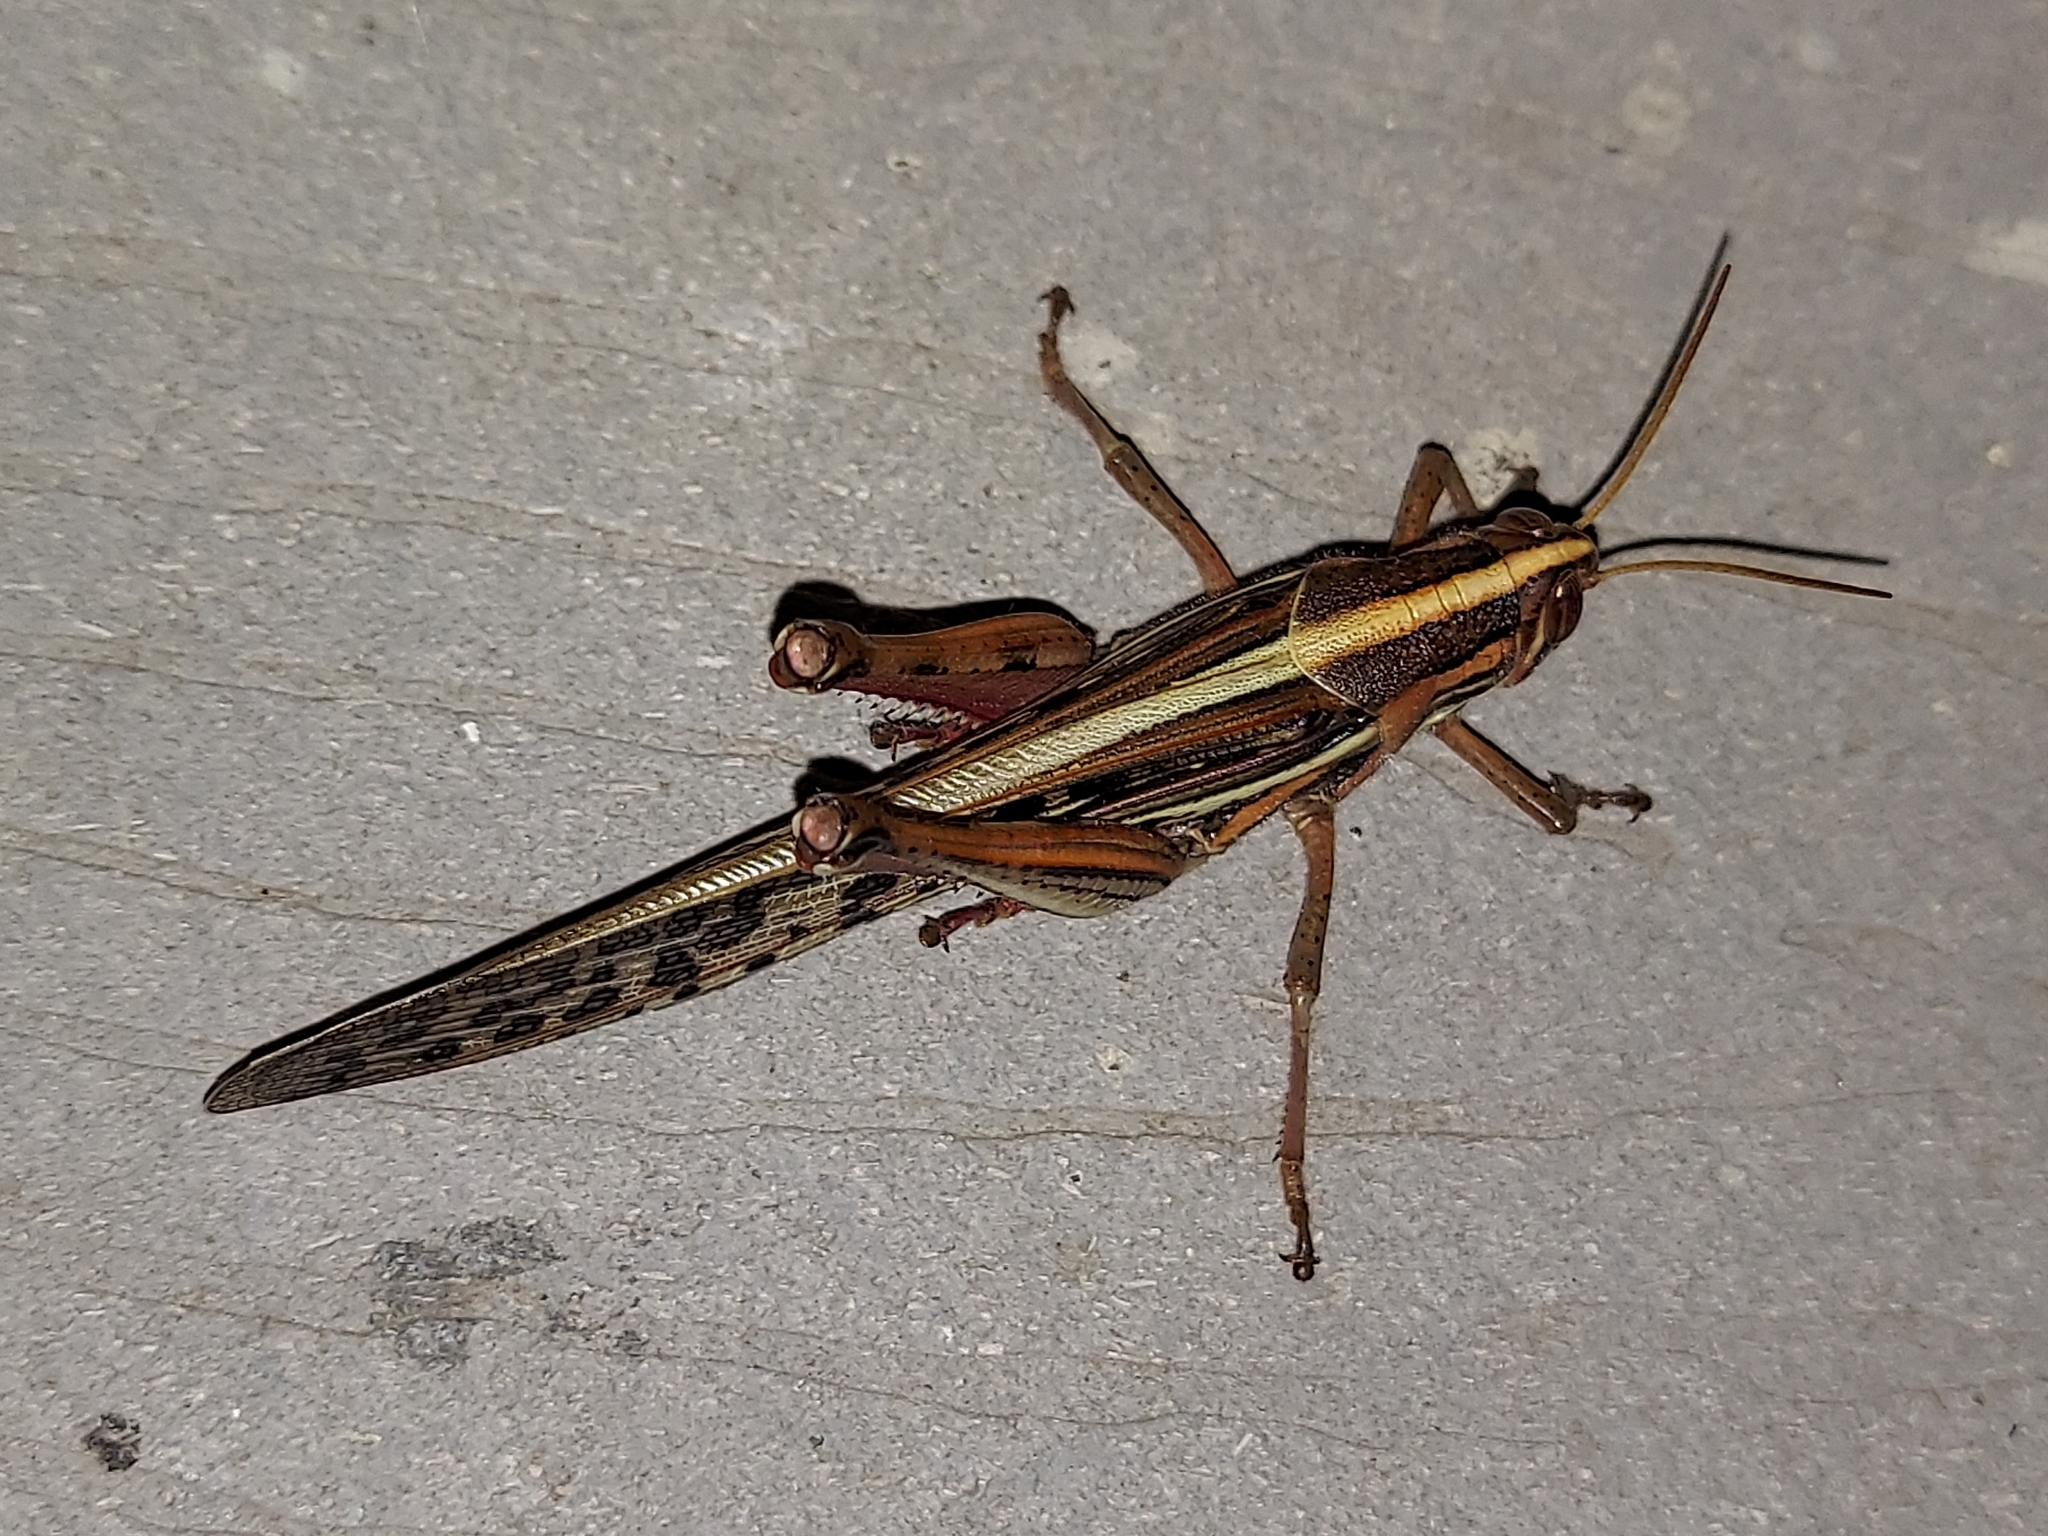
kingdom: Animalia
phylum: Arthropoda
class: Insecta
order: Orthoptera
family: Acrididae
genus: Schistocerca
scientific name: Schistocerca americana
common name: American bird locust
